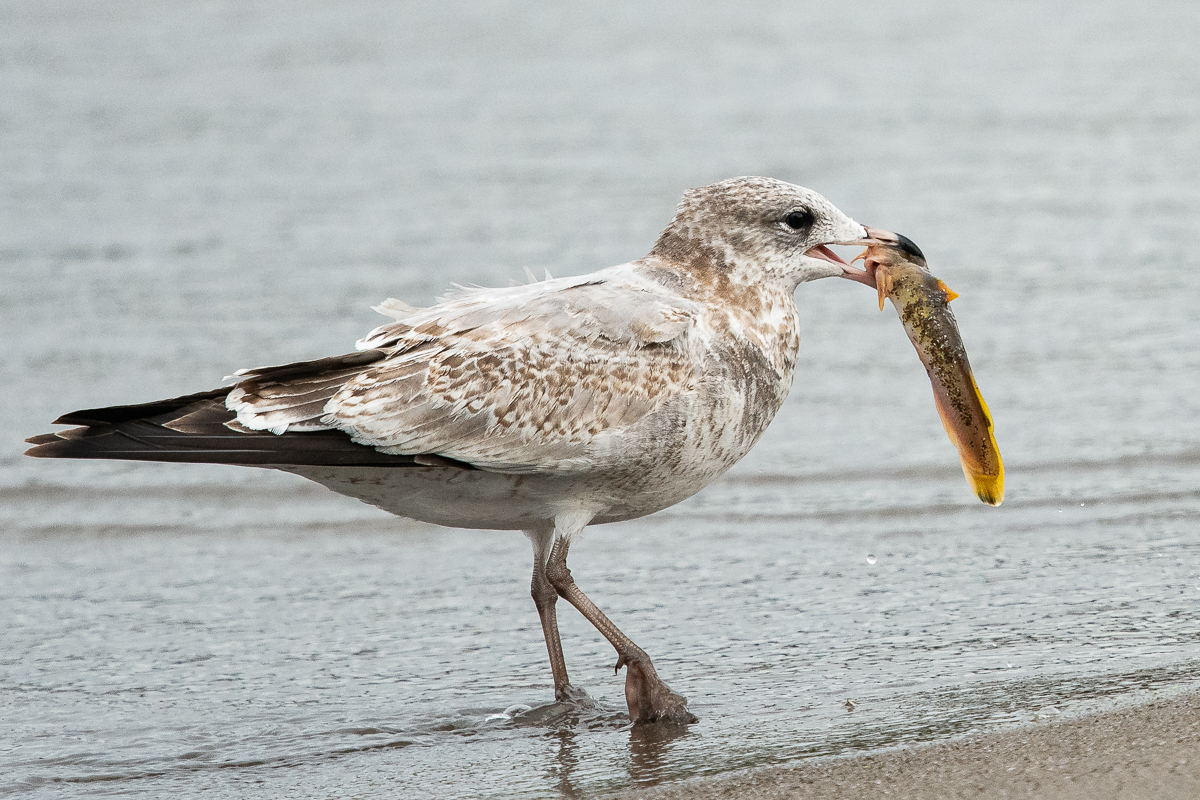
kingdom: Animalia
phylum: Chordata
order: Siluriformes
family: Ictaluridae
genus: Noturus
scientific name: Noturus flavus
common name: Stonecat
